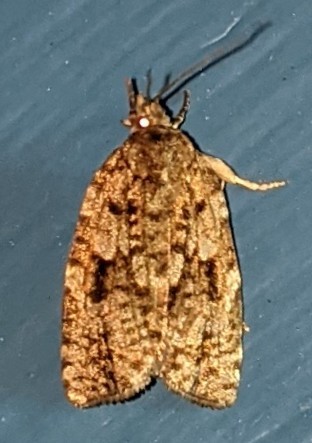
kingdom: Animalia
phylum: Arthropoda
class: Insecta
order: Lepidoptera
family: Tortricidae
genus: Choristoneura
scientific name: Choristoneura fumiferana
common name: Spruce budworm
